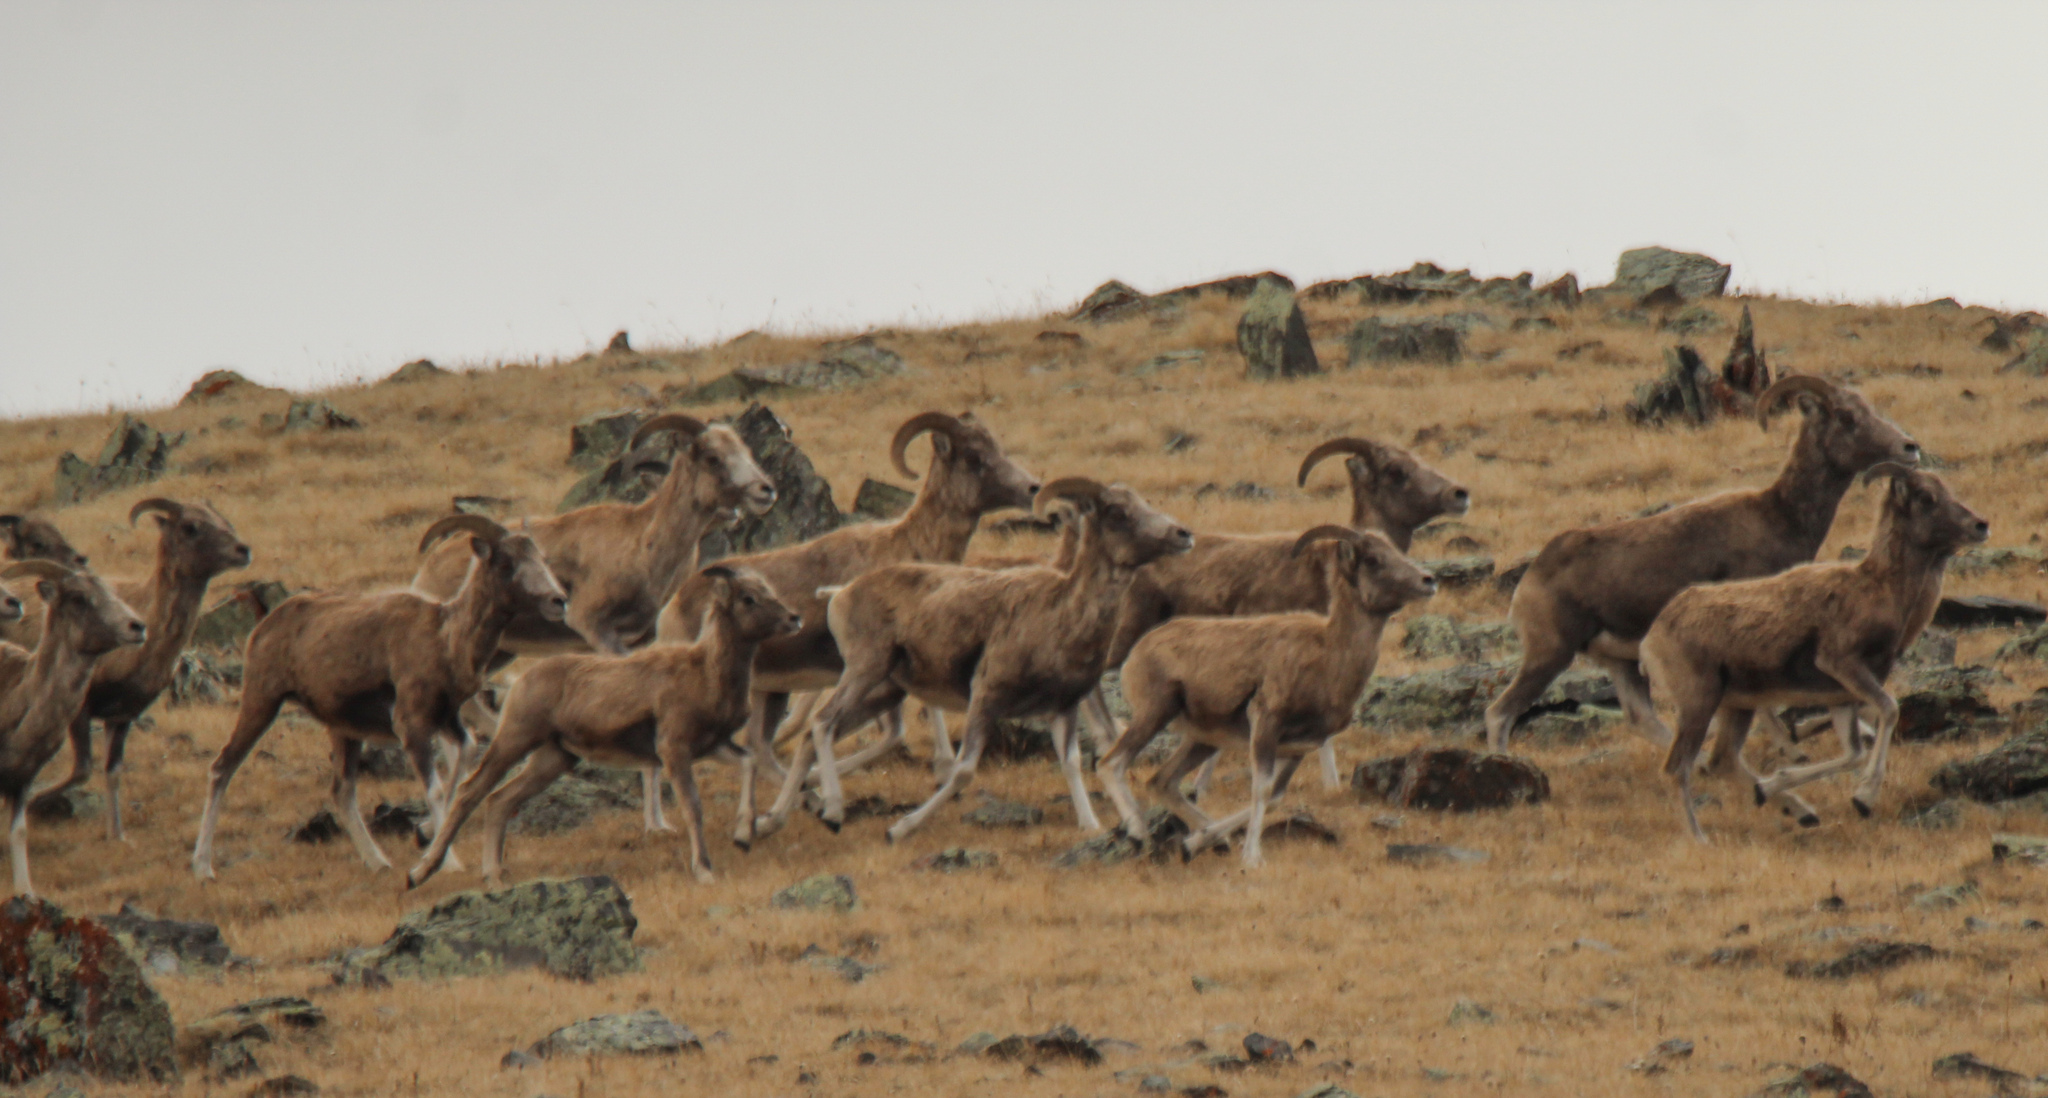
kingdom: Animalia
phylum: Chordata
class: Mammalia
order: Artiodactyla
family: Bovidae
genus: Ovis
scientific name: Ovis ammon
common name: Argali
